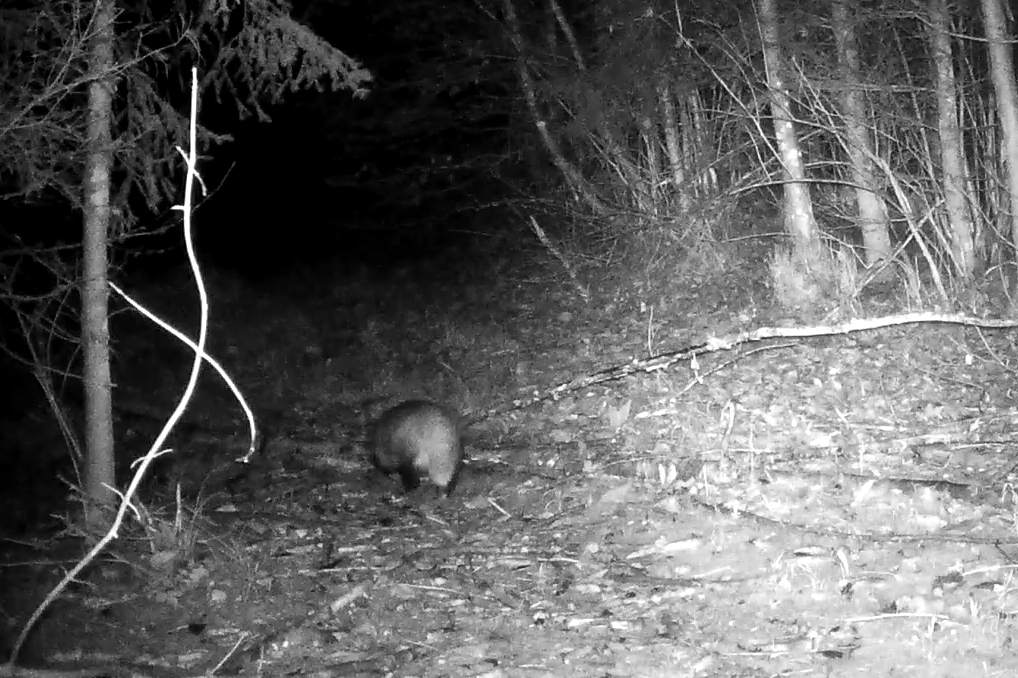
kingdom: Animalia
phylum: Chordata
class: Mammalia
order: Carnivora
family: Mustelidae
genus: Meles
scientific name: Meles meles
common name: Eurasian badger
